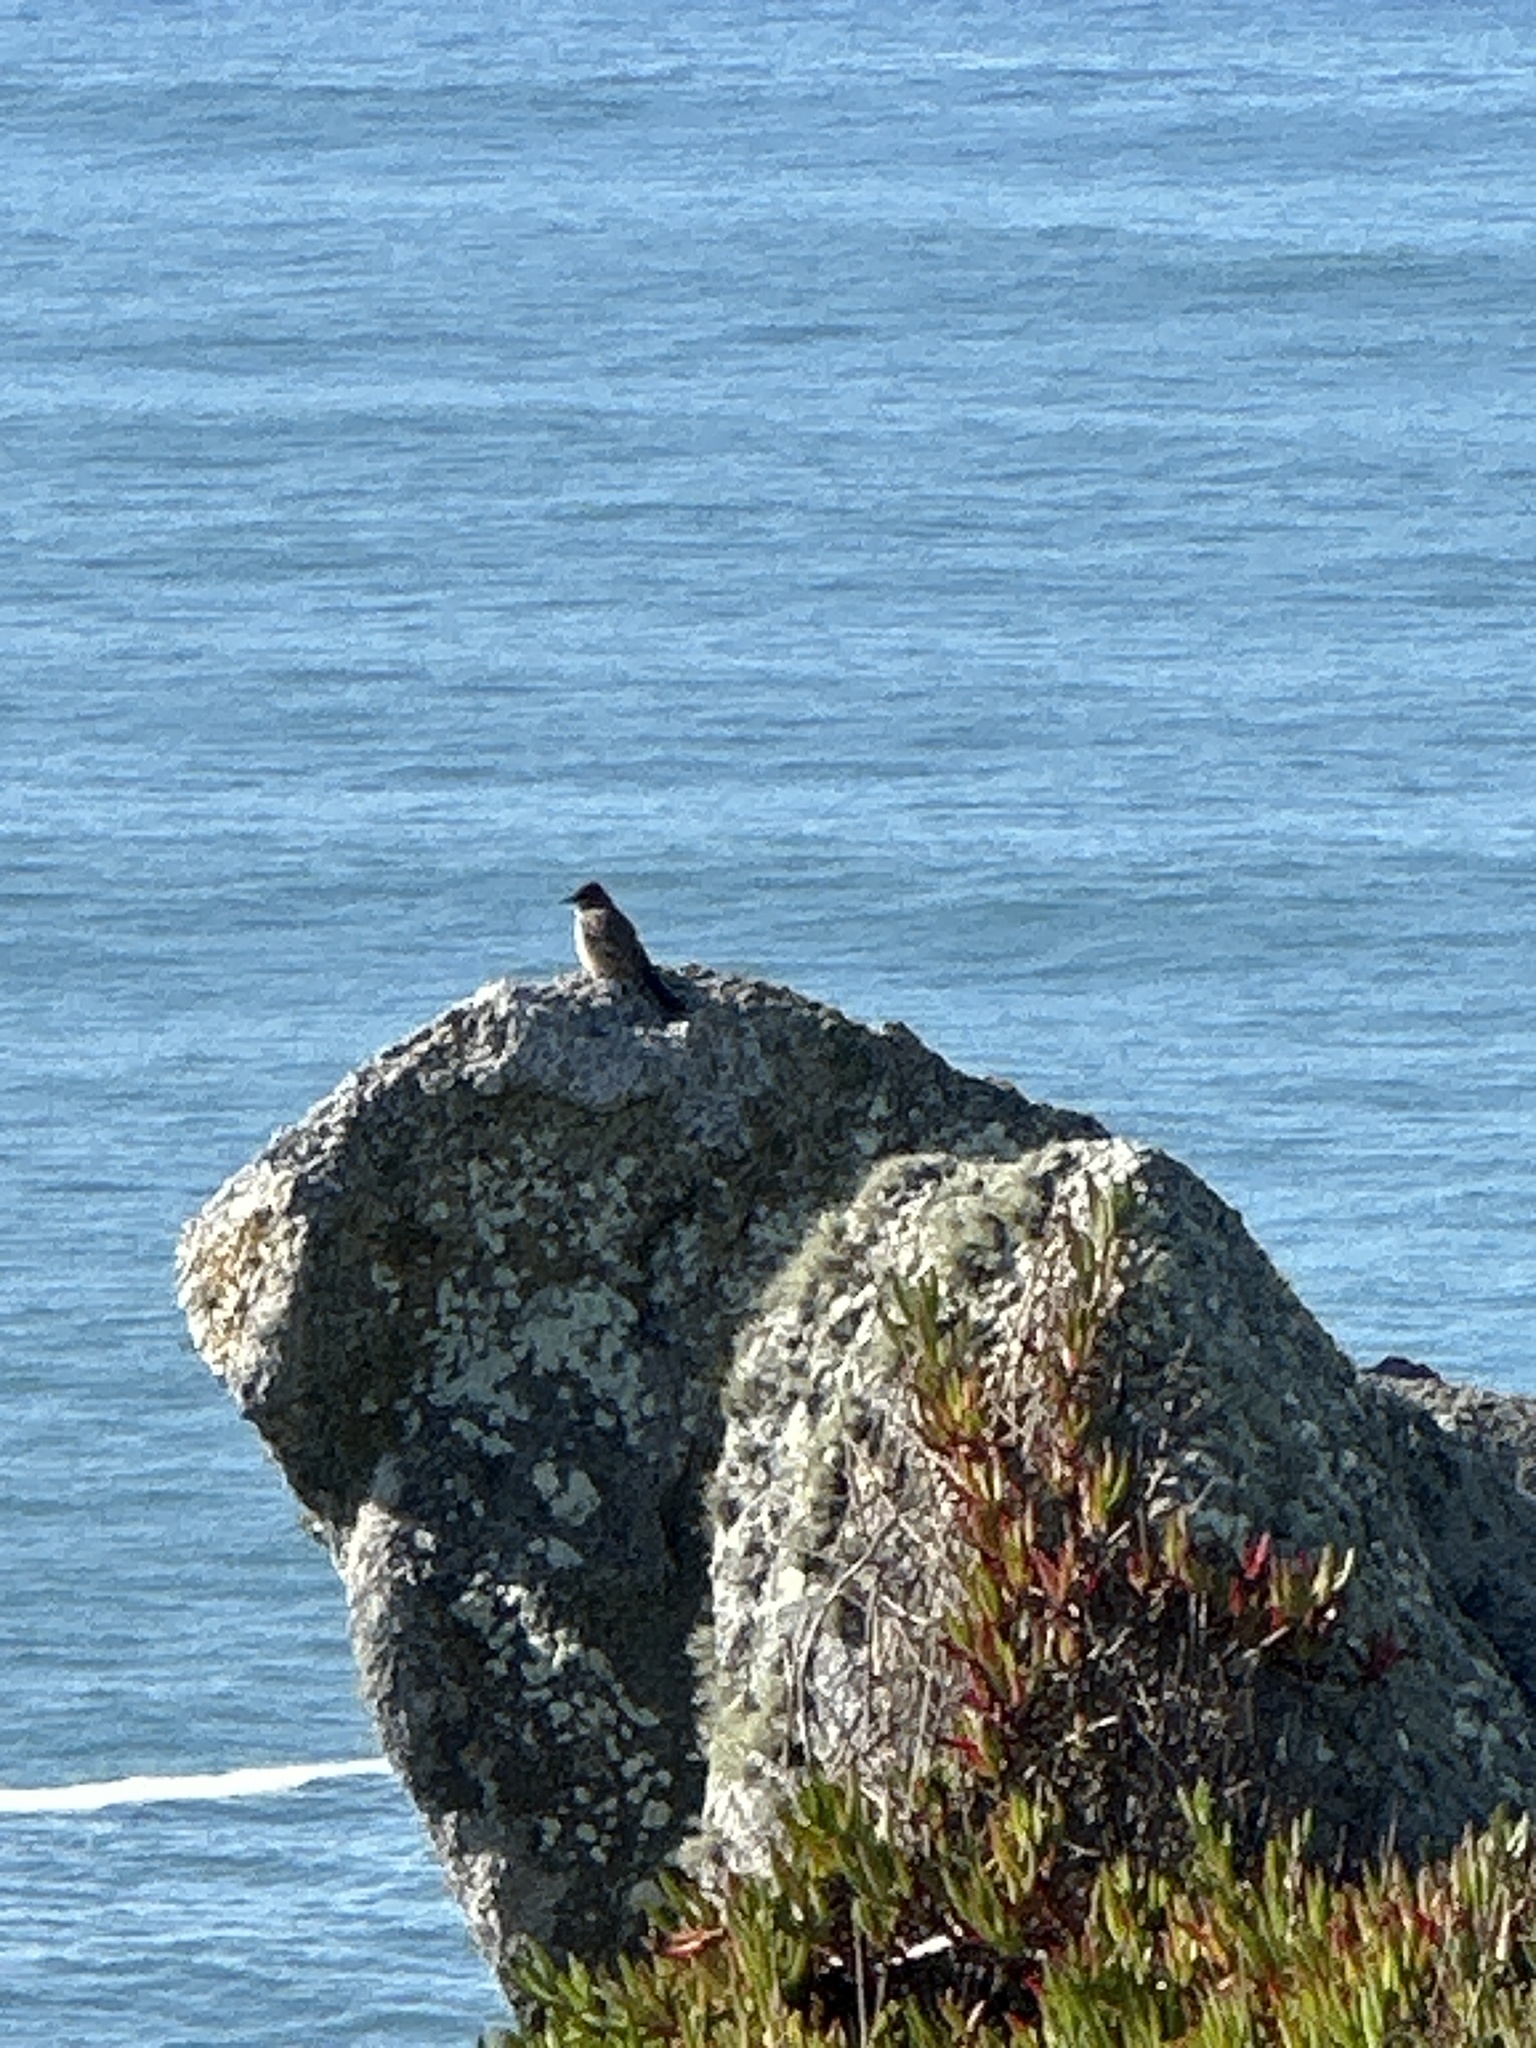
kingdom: Animalia
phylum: Chordata
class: Aves
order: Passeriformes
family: Tyrannidae
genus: Sayornis
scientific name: Sayornis saya
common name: Say's phoebe
